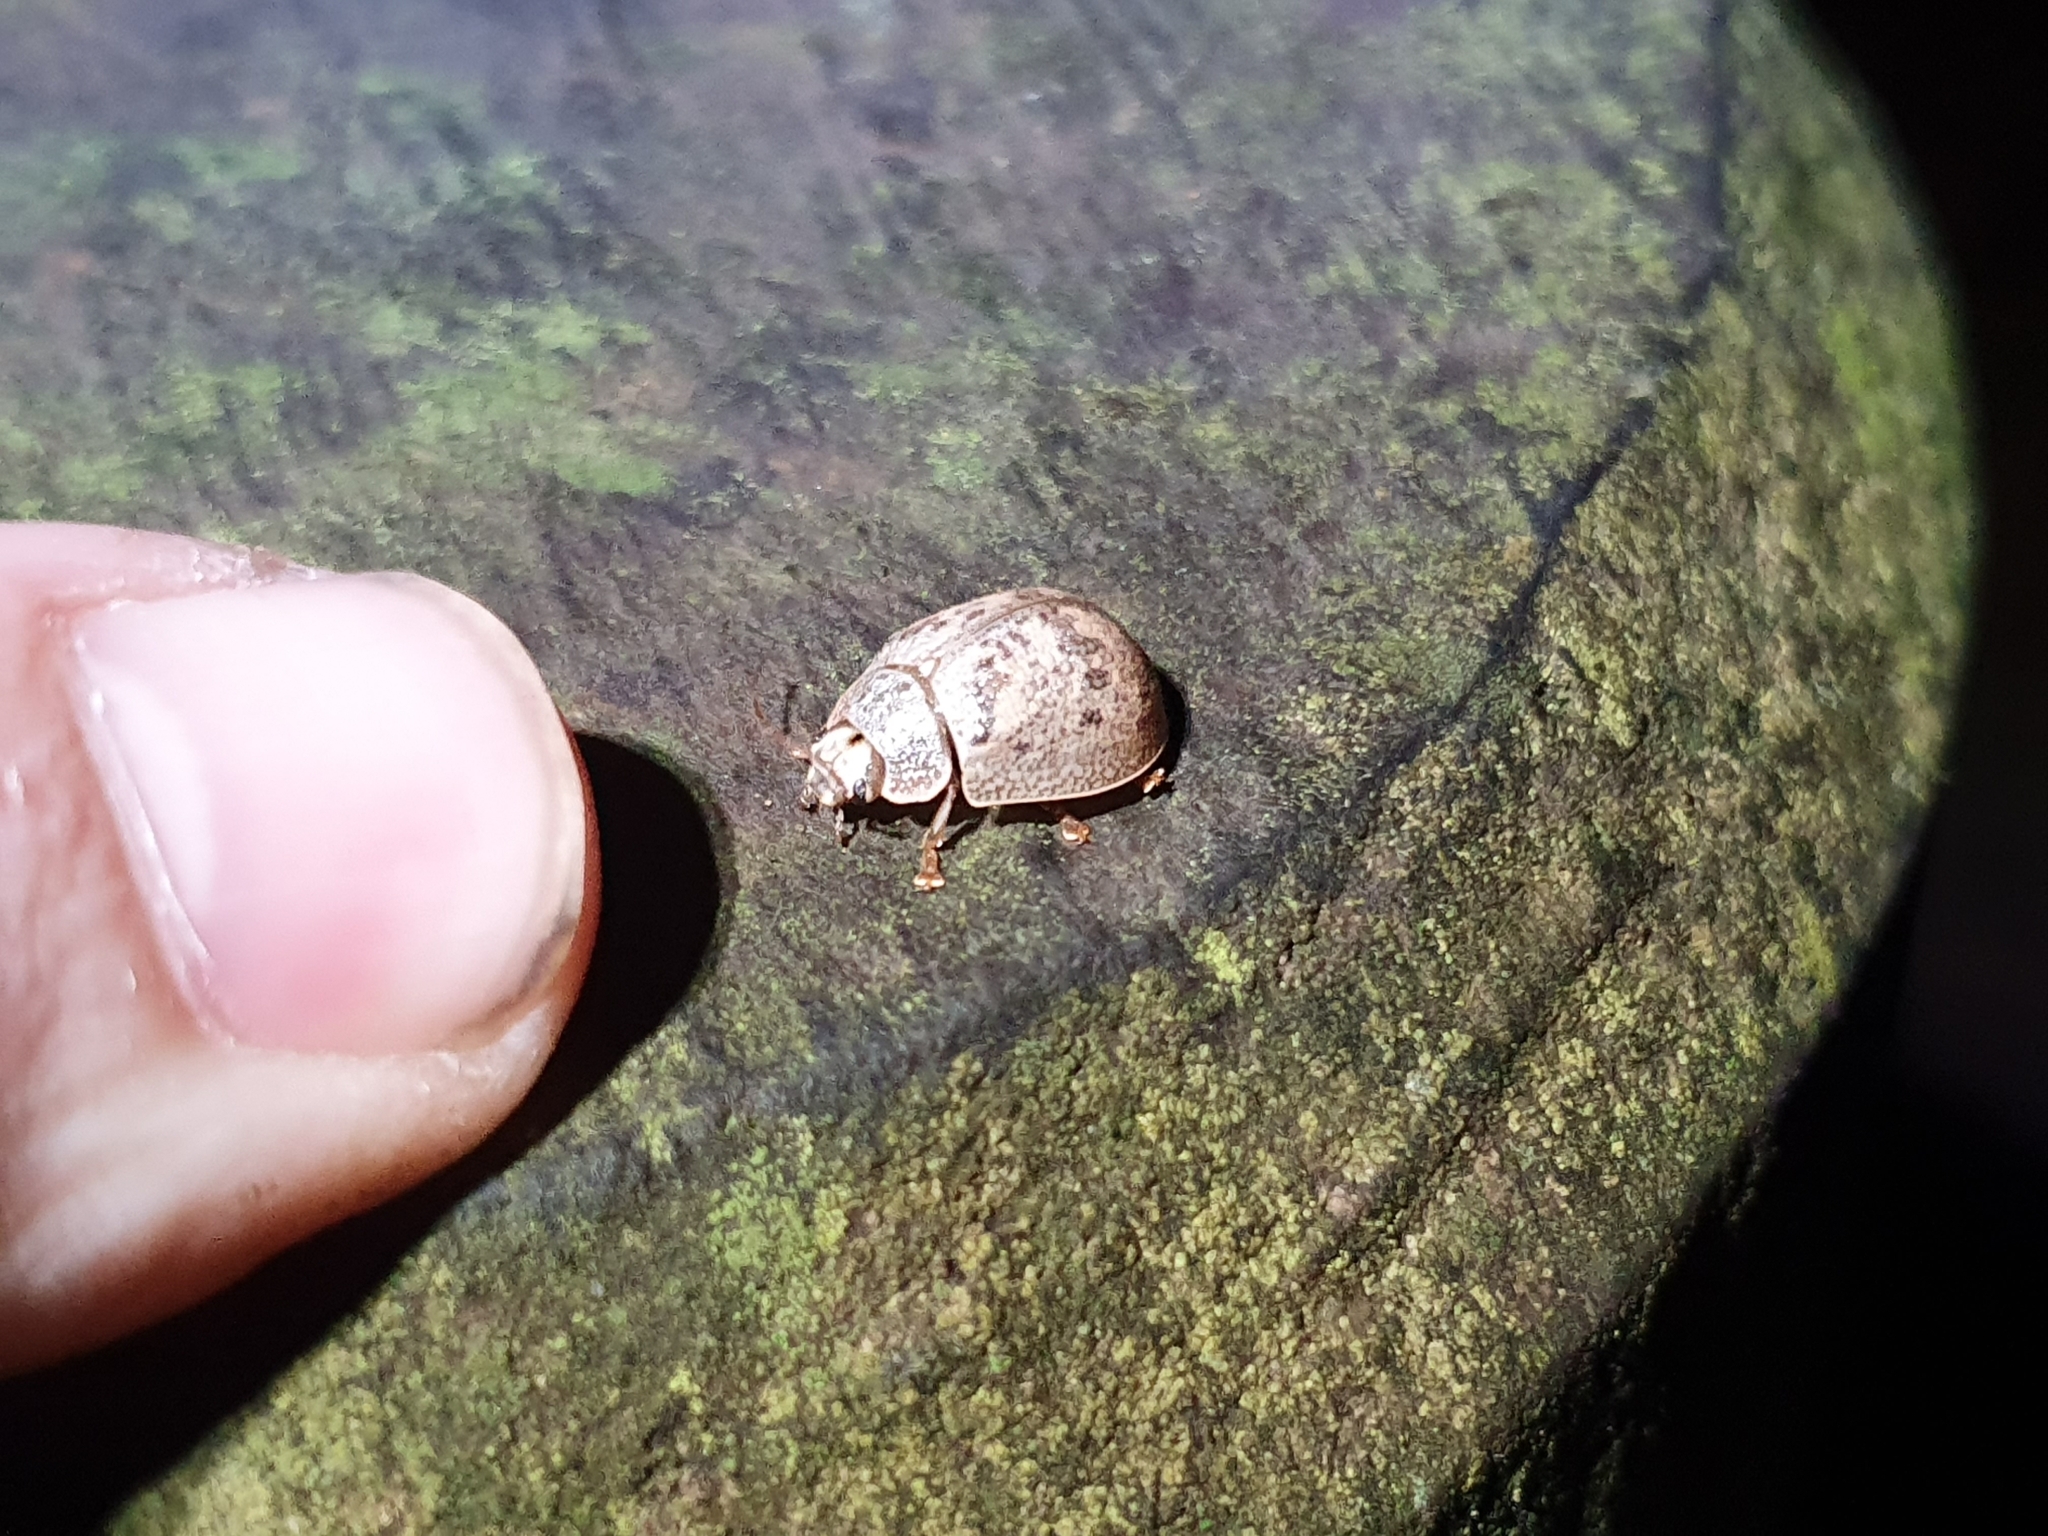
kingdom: Animalia
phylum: Arthropoda
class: Insecta
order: Coleoptera
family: Chrysomelidae
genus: Paropsis
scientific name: Paropsis charybdis
